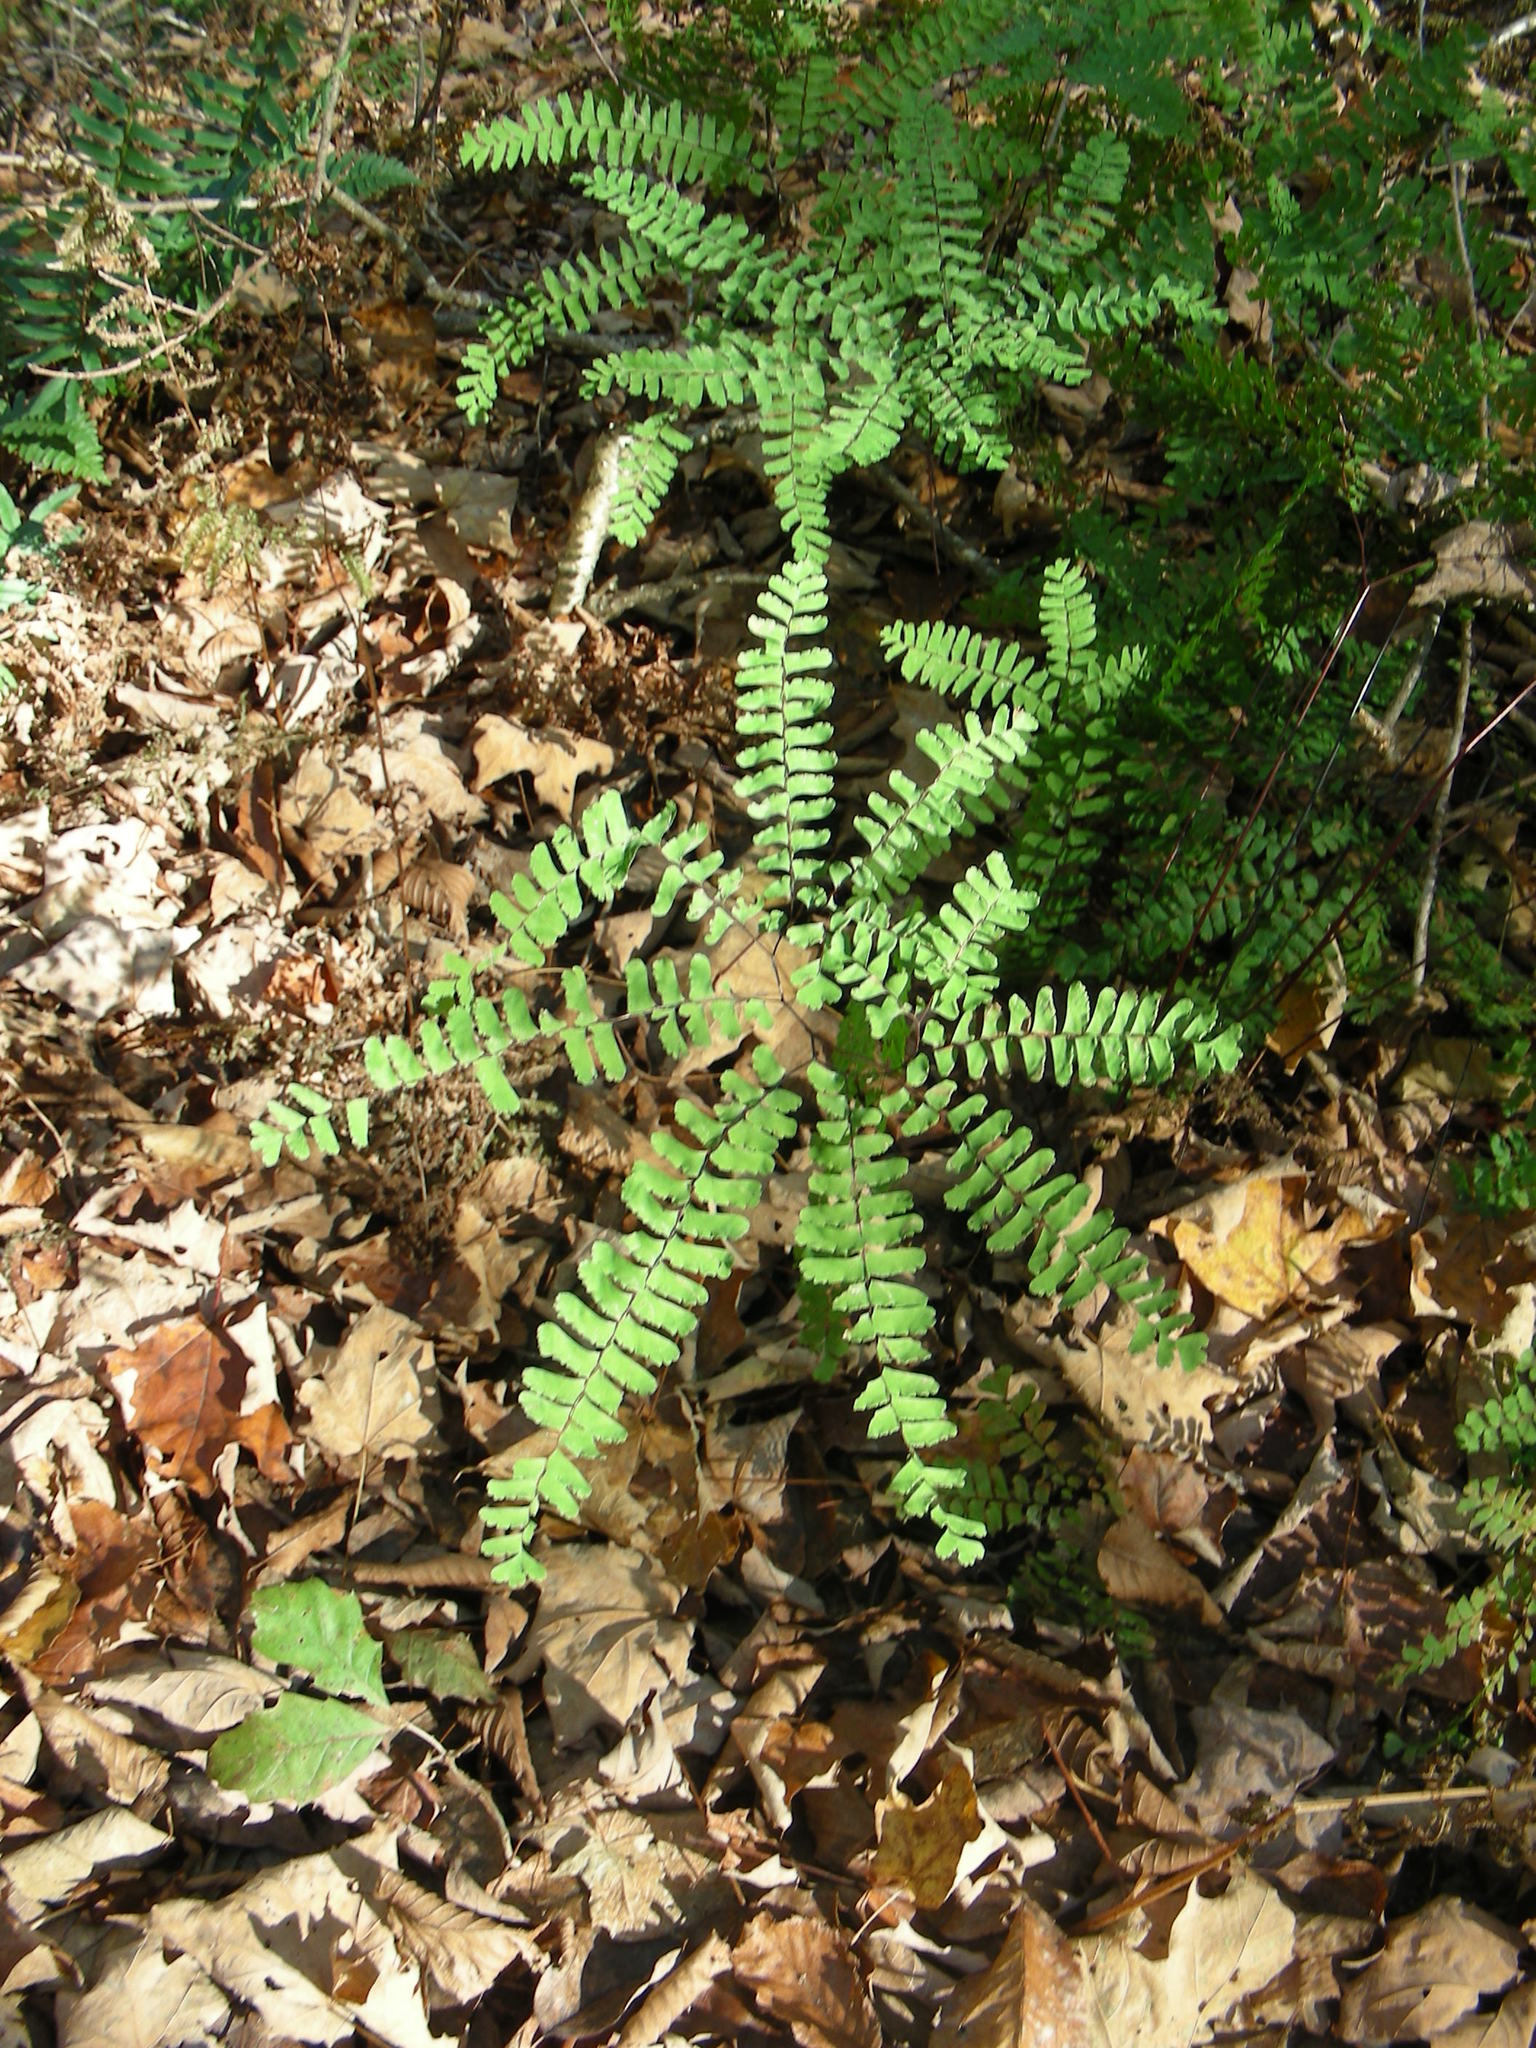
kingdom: Plantae
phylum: Tracheophyta
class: Polypodiopsida
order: Polypodiales
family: Pteridaceae
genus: Adiantum
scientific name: Adiantum pedatum
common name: Five-finger fern
